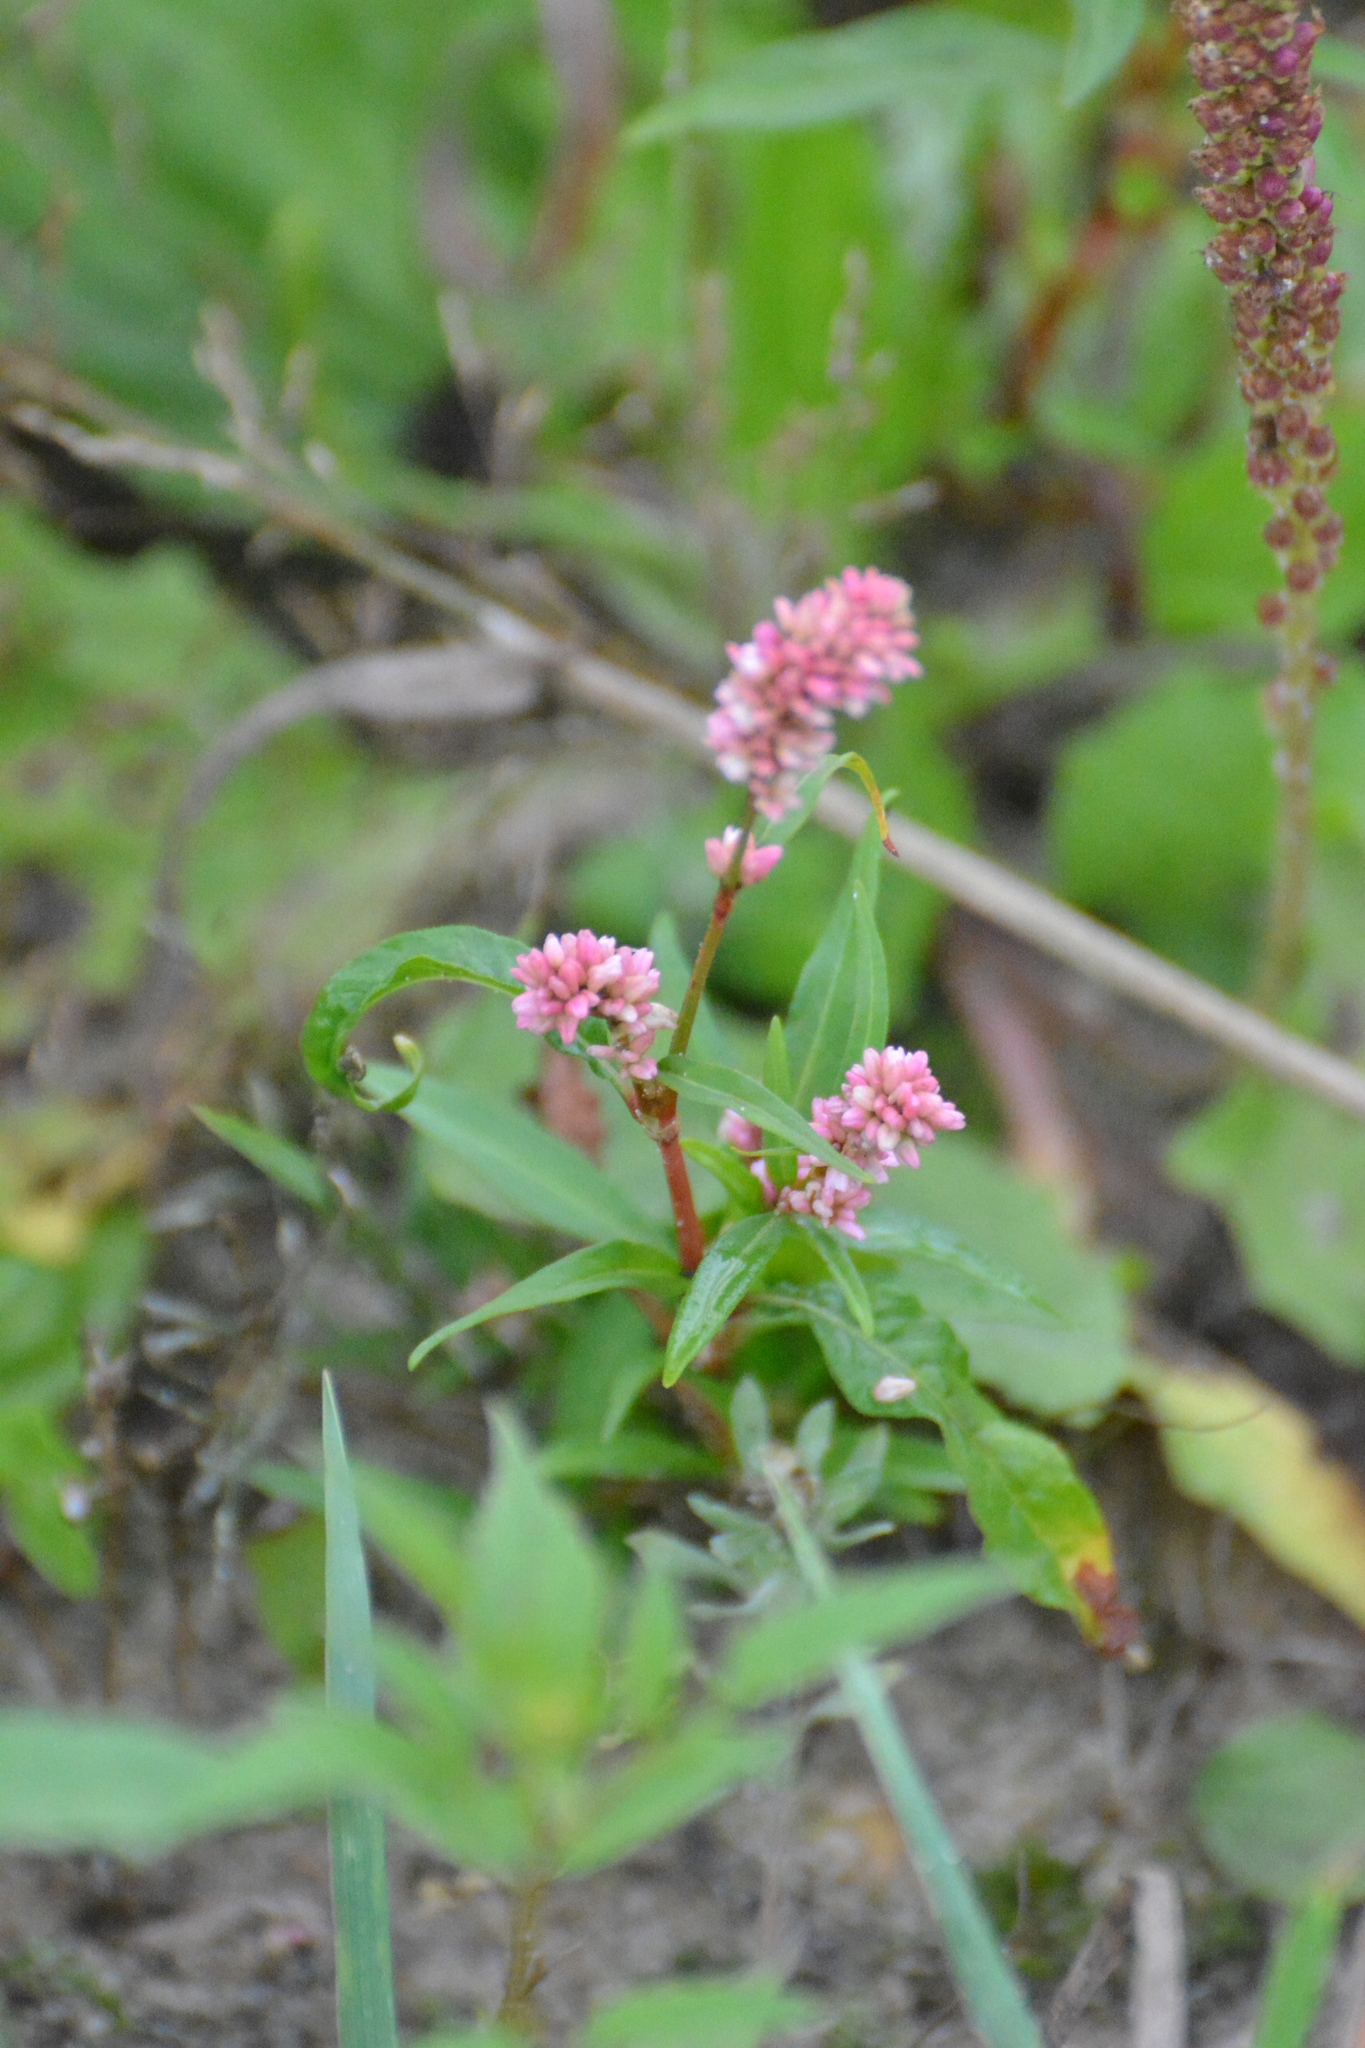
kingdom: Plantae
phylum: Tracheophyta
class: Magnoliopsida
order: Caryophyllales
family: Polygonaceae
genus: Persicaria
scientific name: Persicaria maculosa
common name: Redshank
